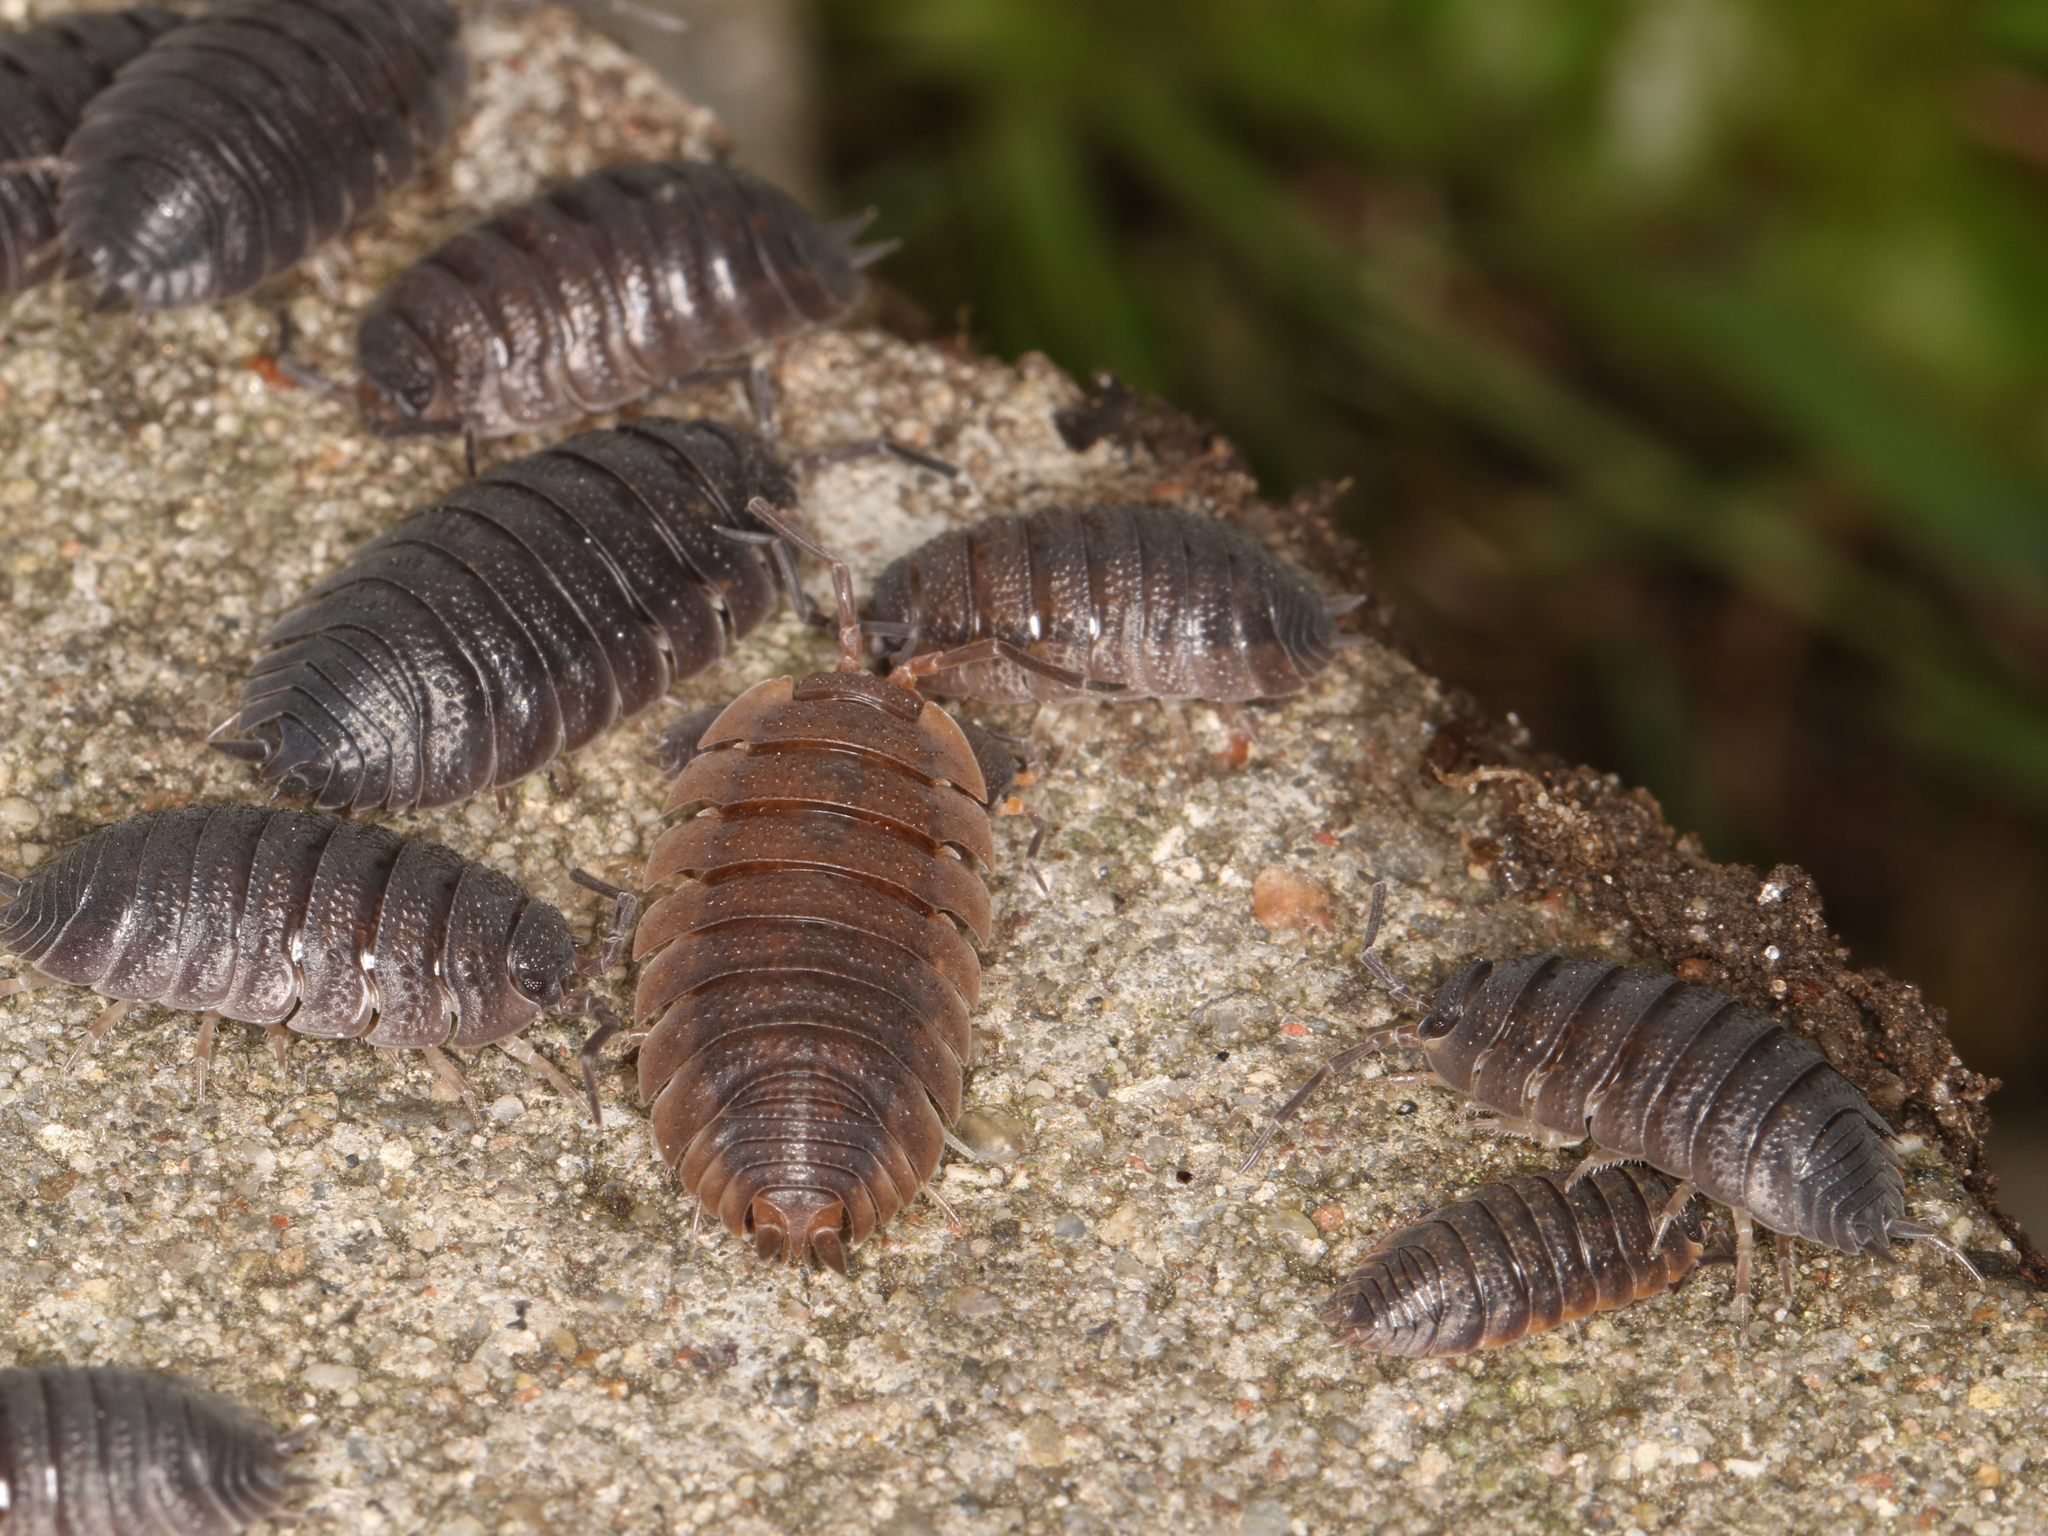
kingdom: Animalia
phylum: Arthropoda
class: Malacostraca
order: Isopoda
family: Porcellionidae
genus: Porcellio
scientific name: Porcellio scaber
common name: Common rough woodlouse
